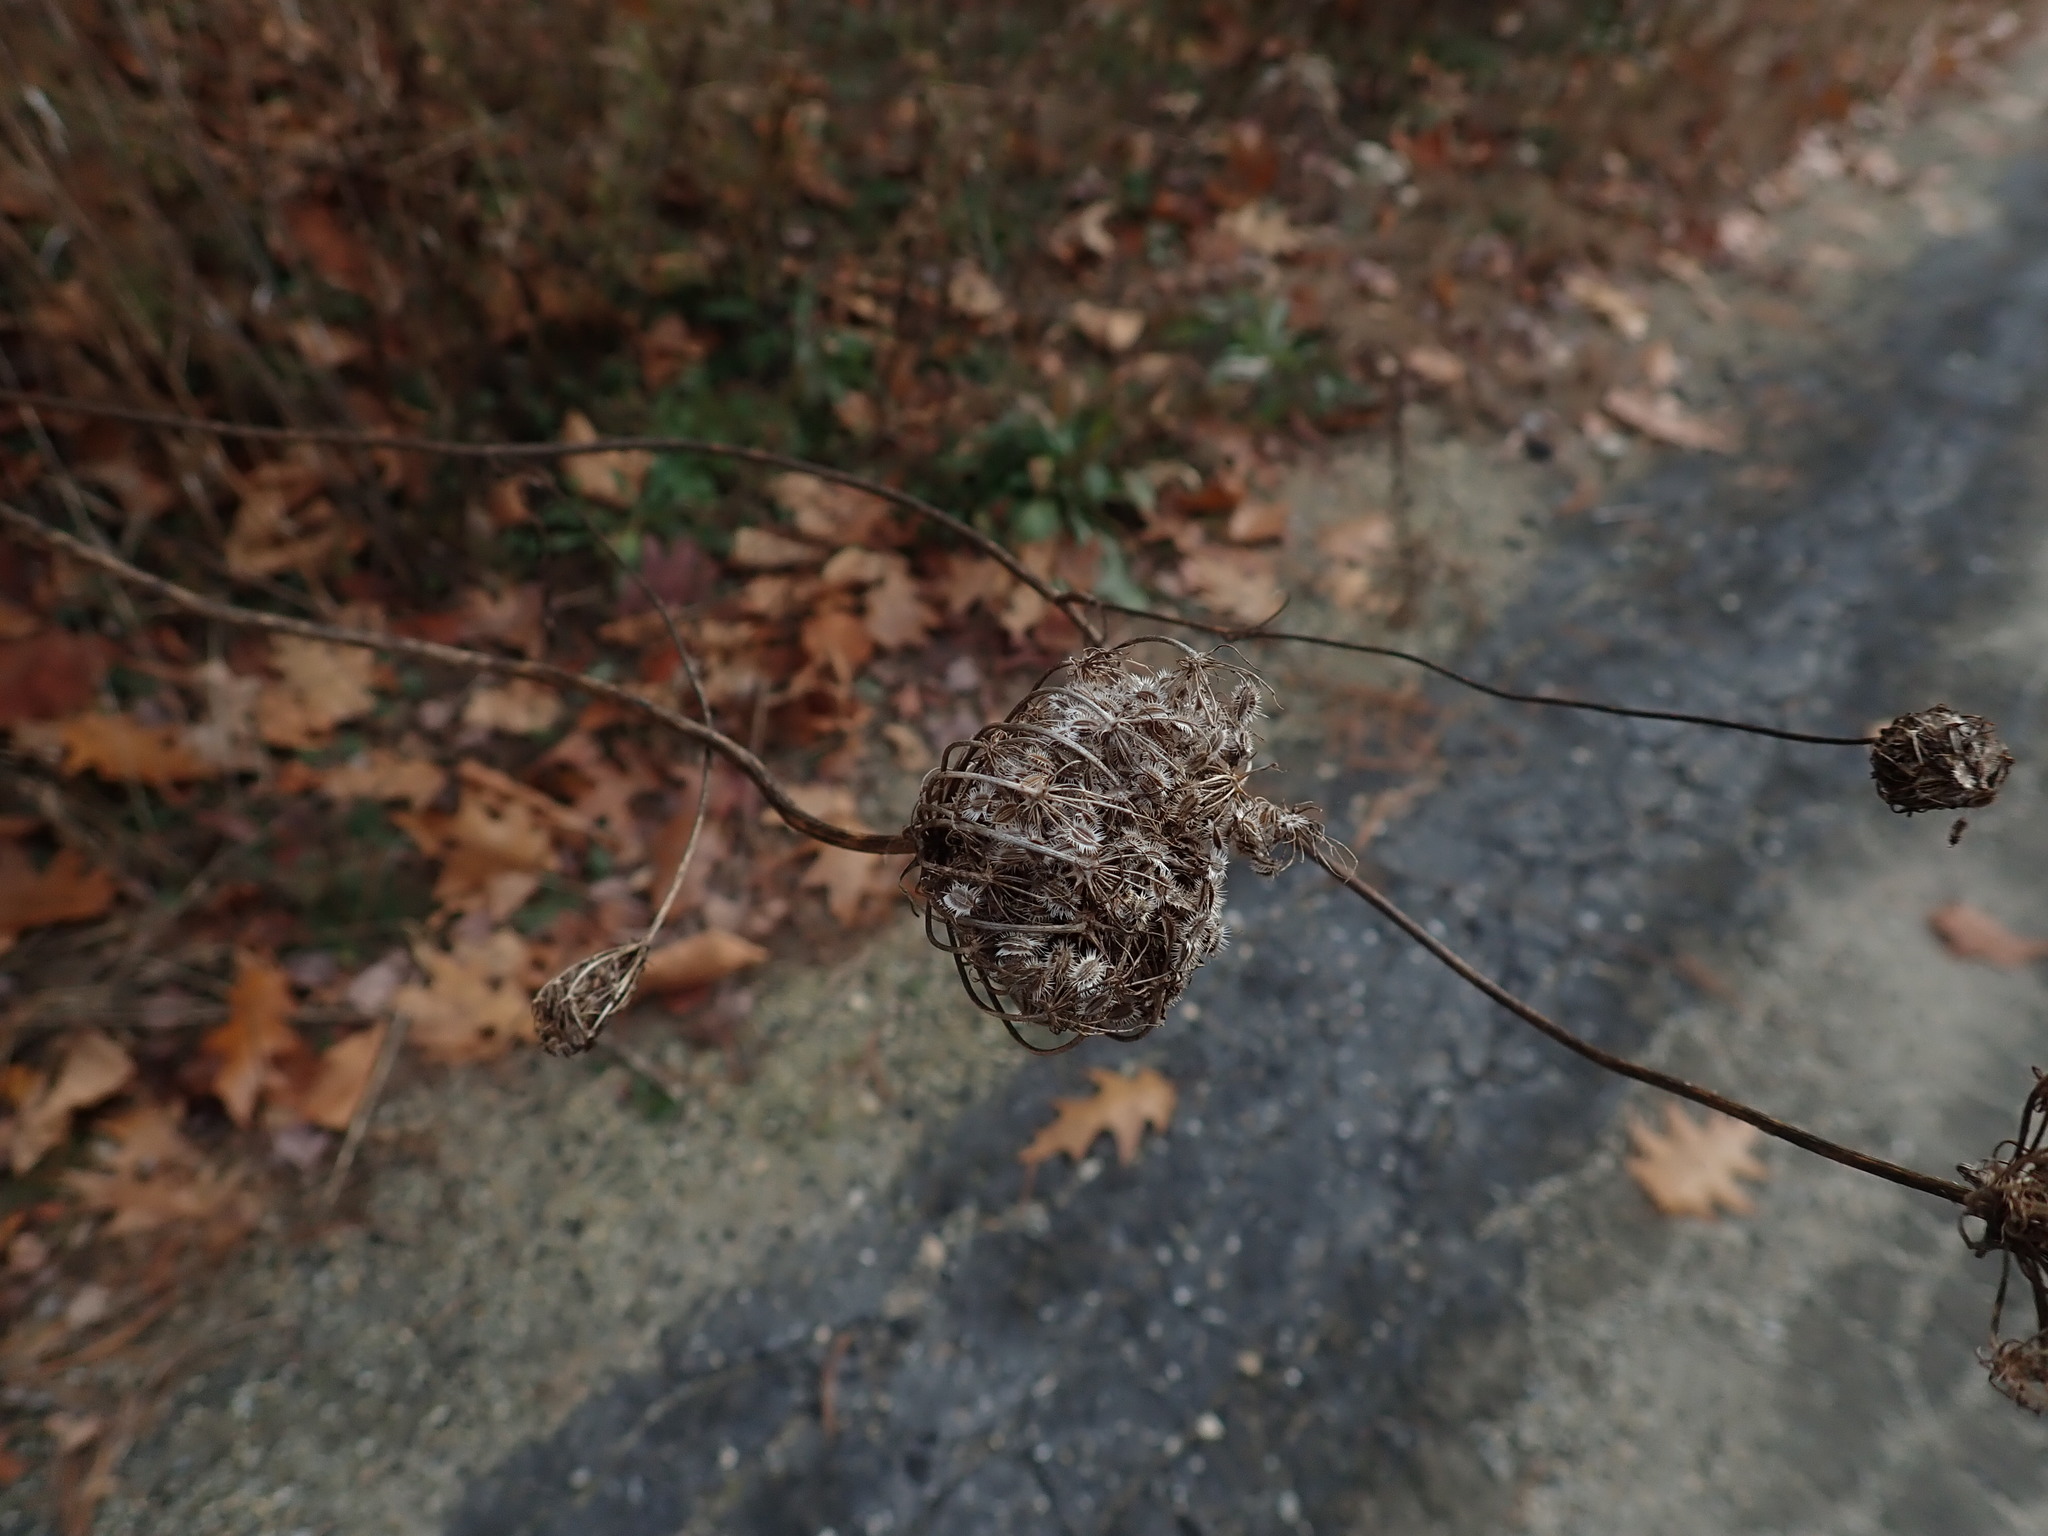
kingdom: Plantae
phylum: Tracheophyta
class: Magnoliopsida
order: Apiales
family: Apiaceae
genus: Daucus
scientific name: Daucus carota
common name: Wild carrot
